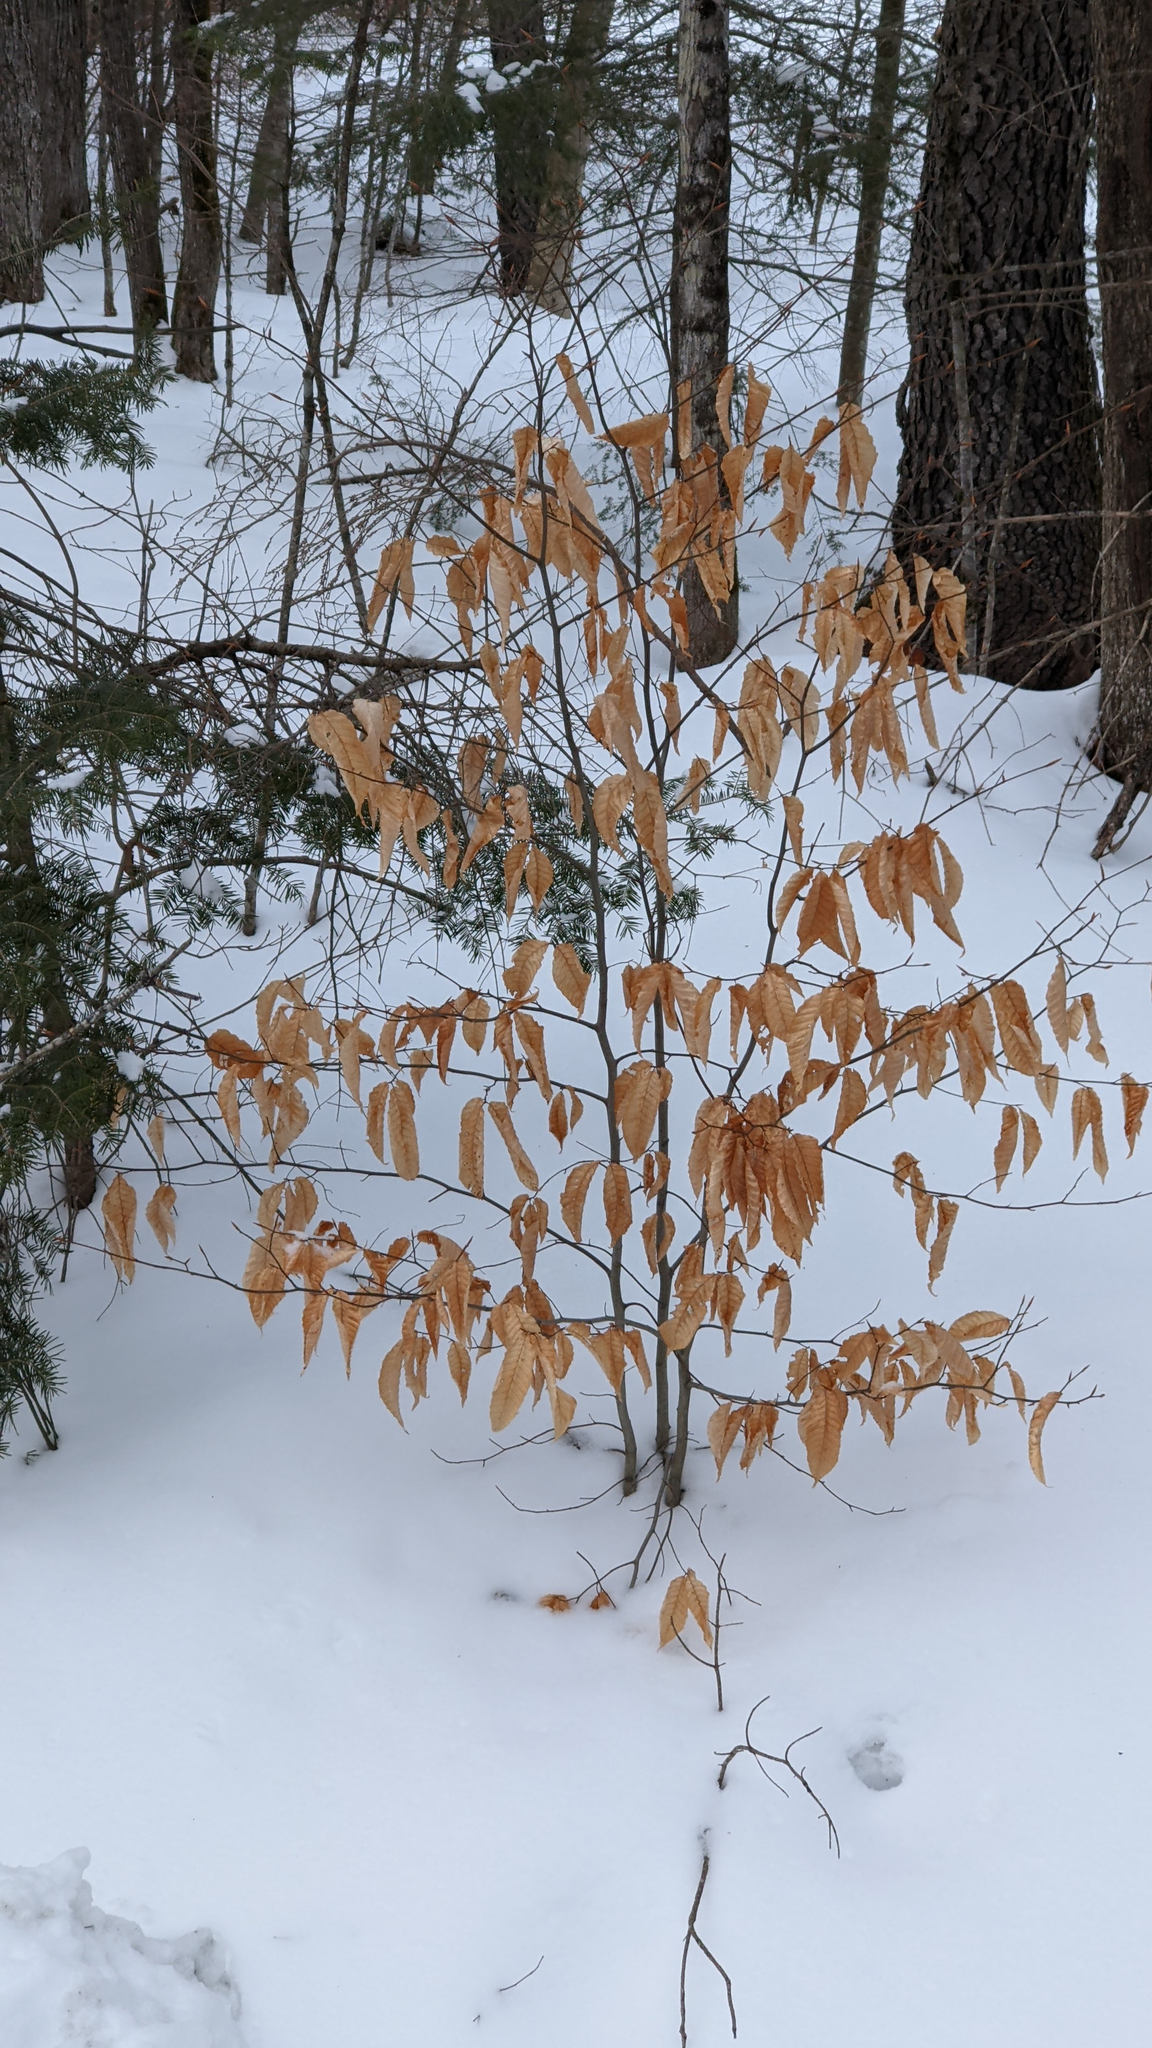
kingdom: Plantae
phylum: Tracheophyta
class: Magnoliopsida
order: Fagales
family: Fagaceae
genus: Fagus
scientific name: Fagus grandifolia
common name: American beech
